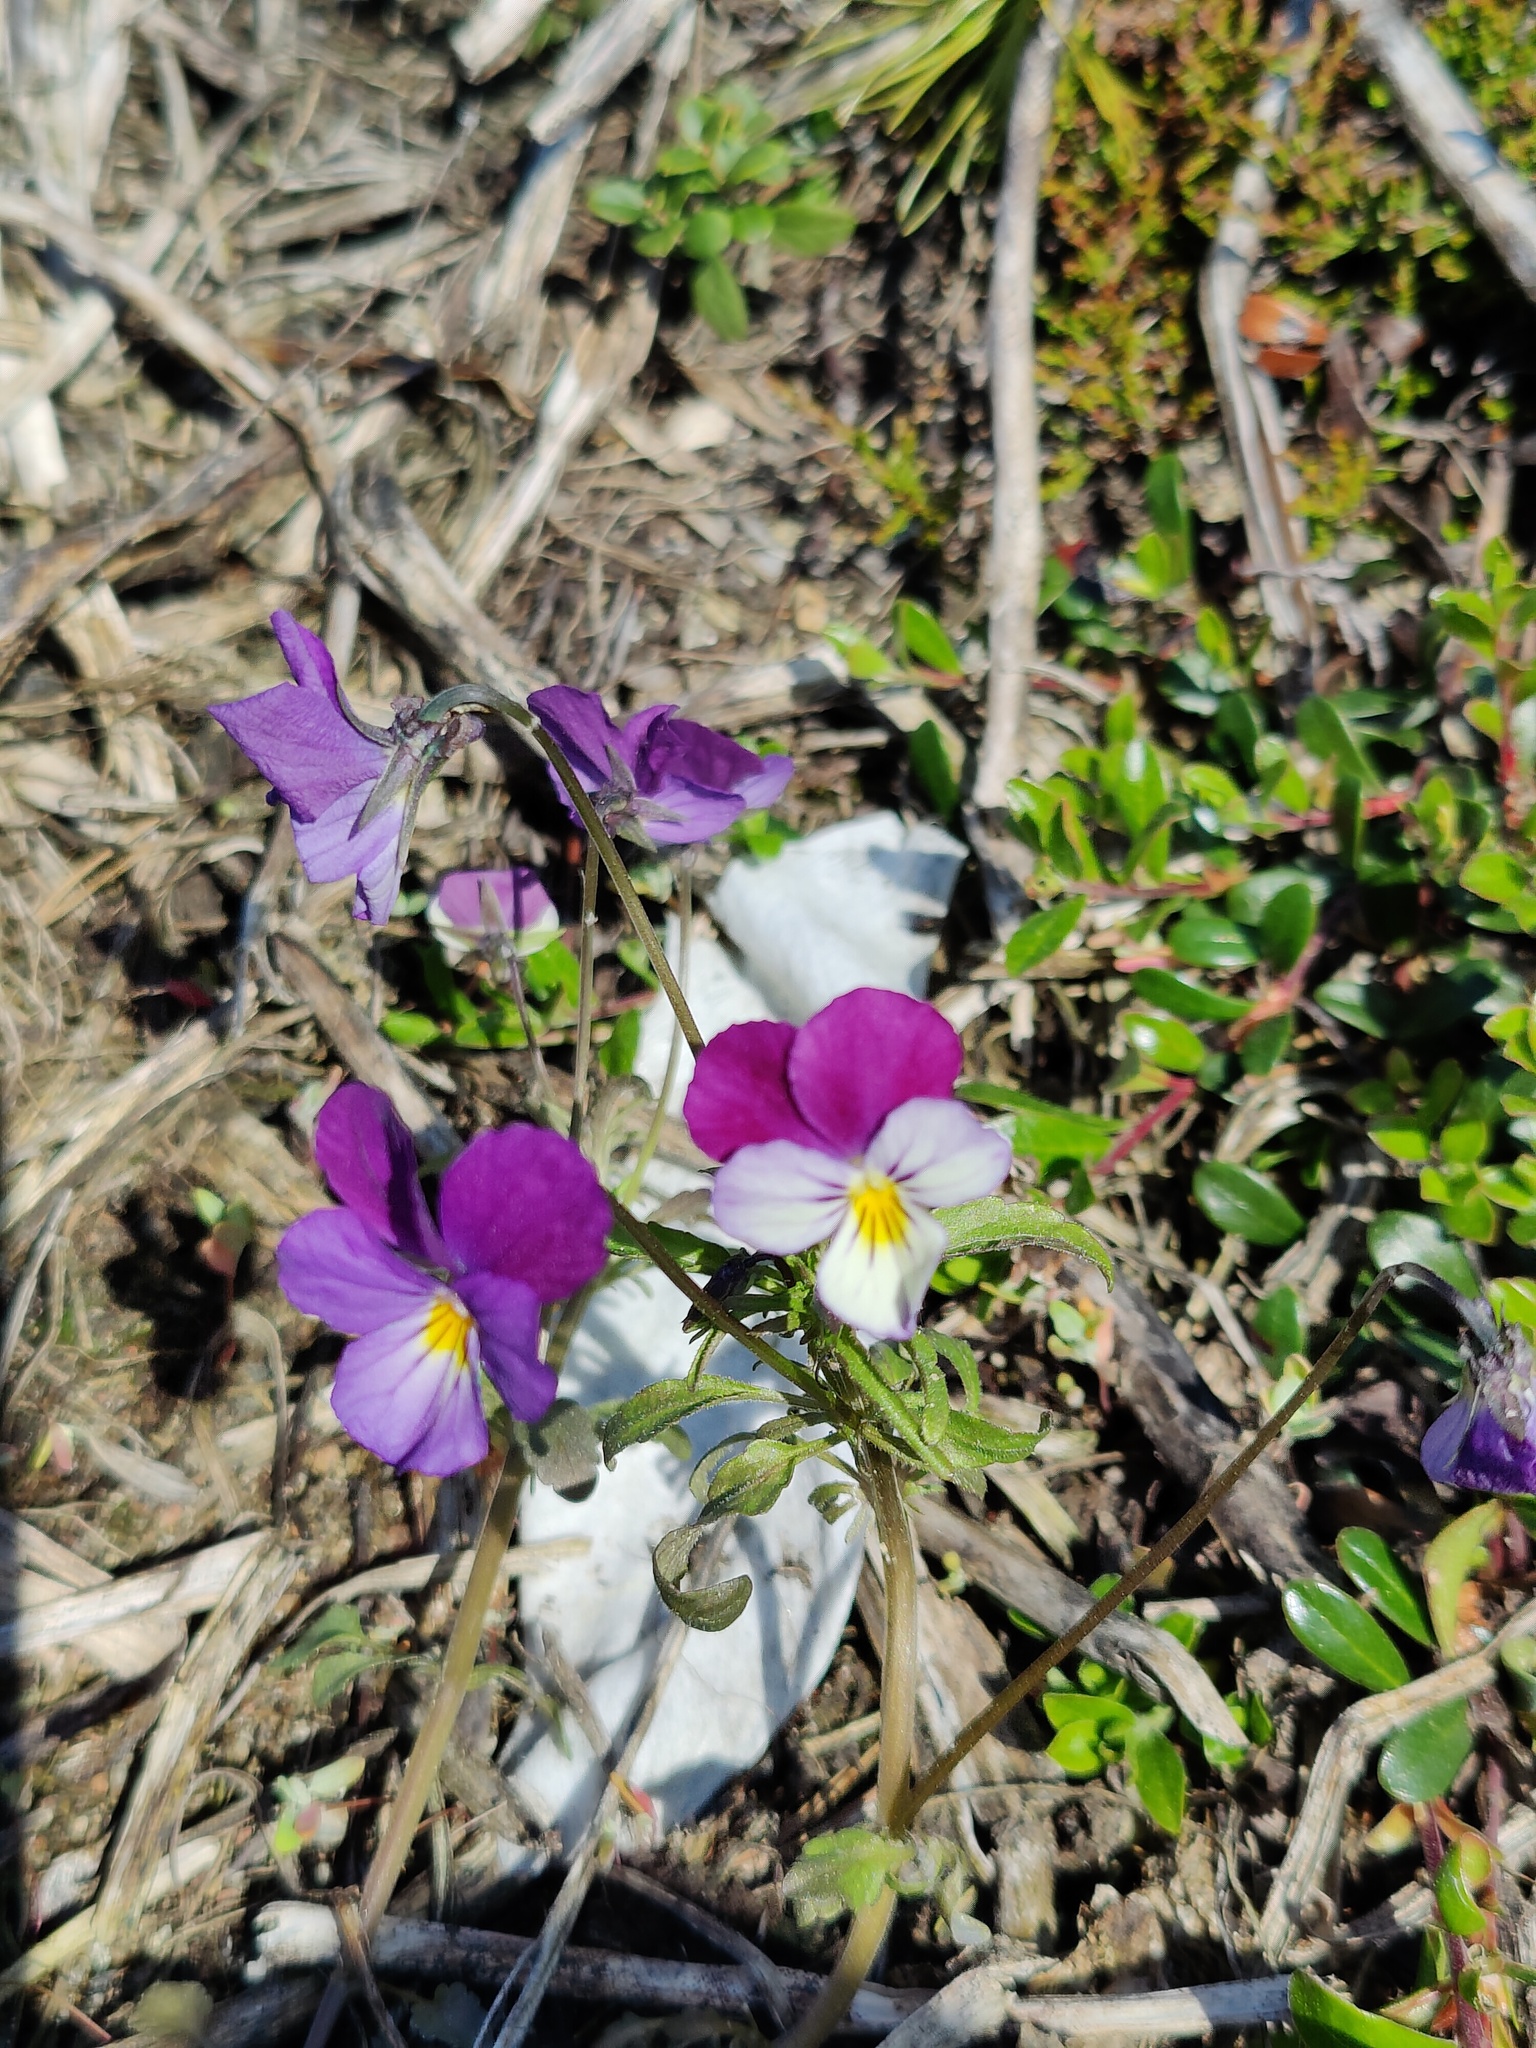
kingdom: Plantae
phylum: Tracheophyta
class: Magnoliopsida
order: Malpighiales
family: Violaceae
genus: Viola
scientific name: Viola tricolor
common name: Pansy
